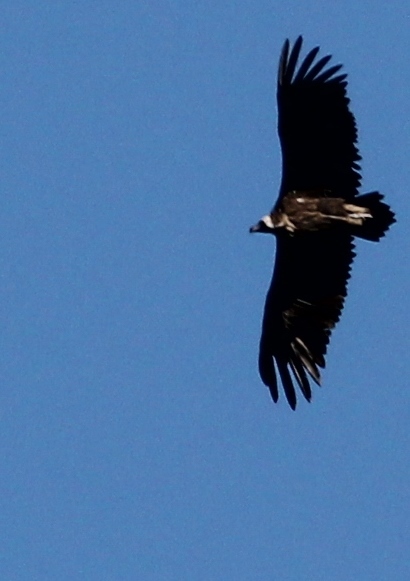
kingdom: Animalia
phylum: Chordata
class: Aves
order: Accipitriformes
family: Accipitridae
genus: Aegypius
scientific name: Aegypius monachus
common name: Cinereous vulture
